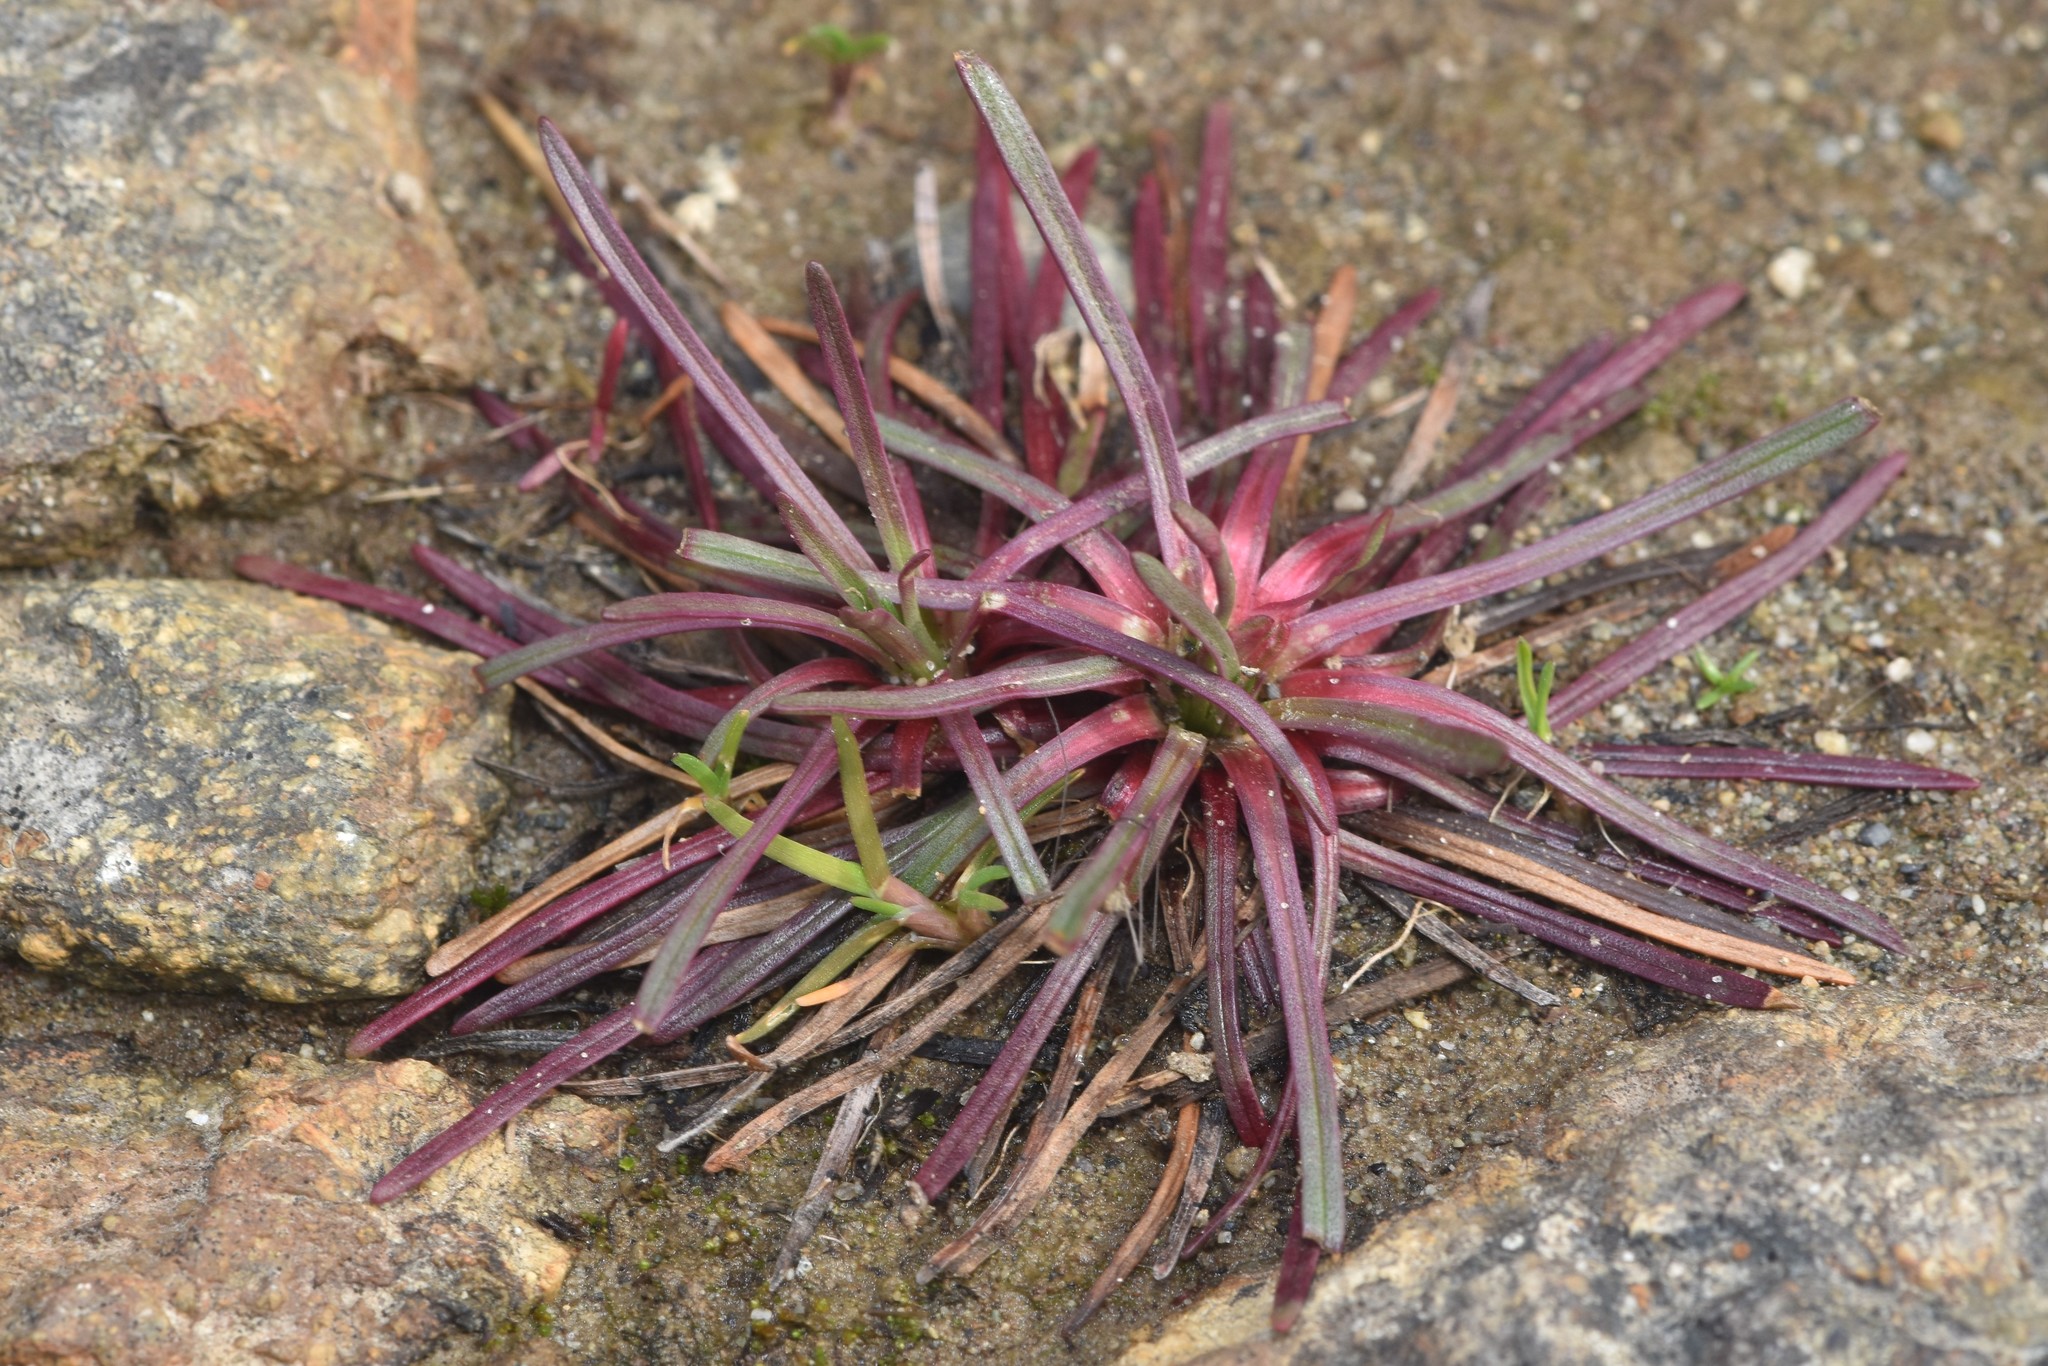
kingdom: Plantae
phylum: Tracheophyta
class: Magnoliopsida
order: Caryophyllales
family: Plumbaginaceae
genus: Armeria
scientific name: Armeria maritima
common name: Thrift
